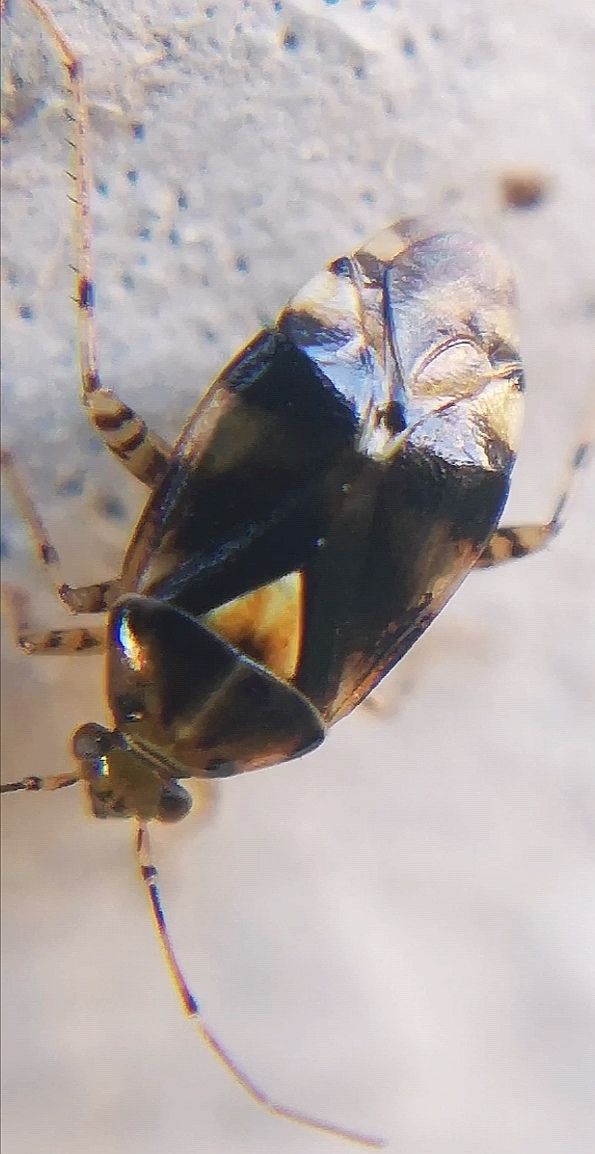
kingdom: Animalia
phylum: Arthropoda
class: Insecta
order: Hemiptera
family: Miridae
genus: Liocoris
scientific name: Liocoris tripustulatus
